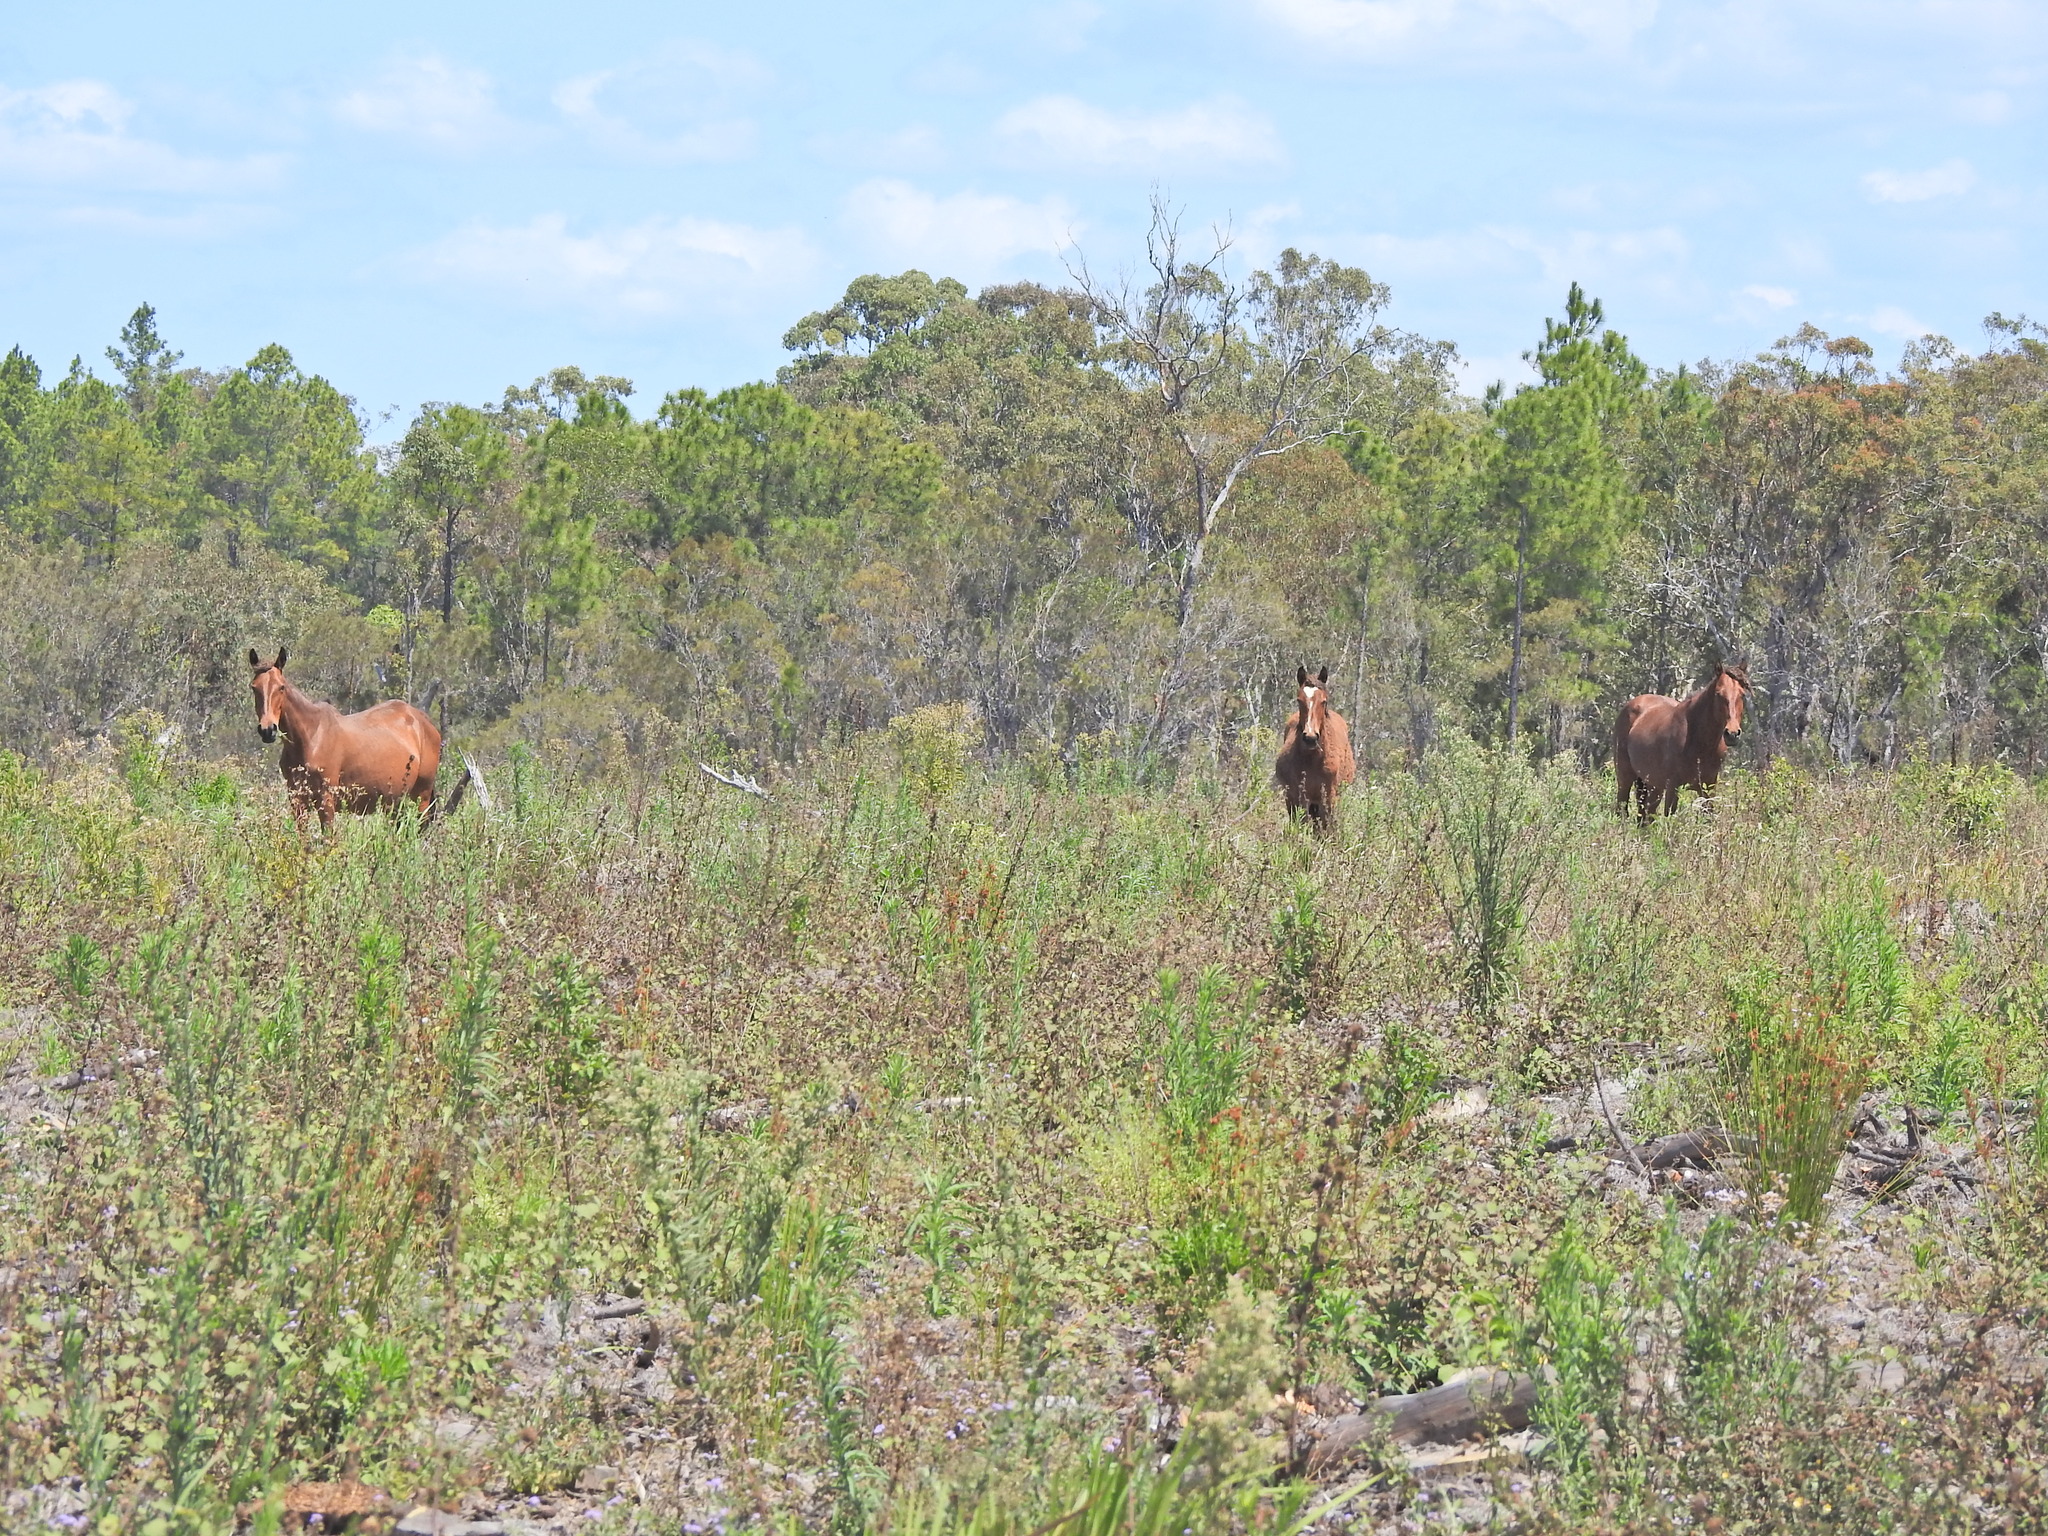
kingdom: Animalia
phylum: Chordata
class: Mammalia
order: Perissodactyla
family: Equidae
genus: Equus
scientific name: Equus caballus
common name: Horse
